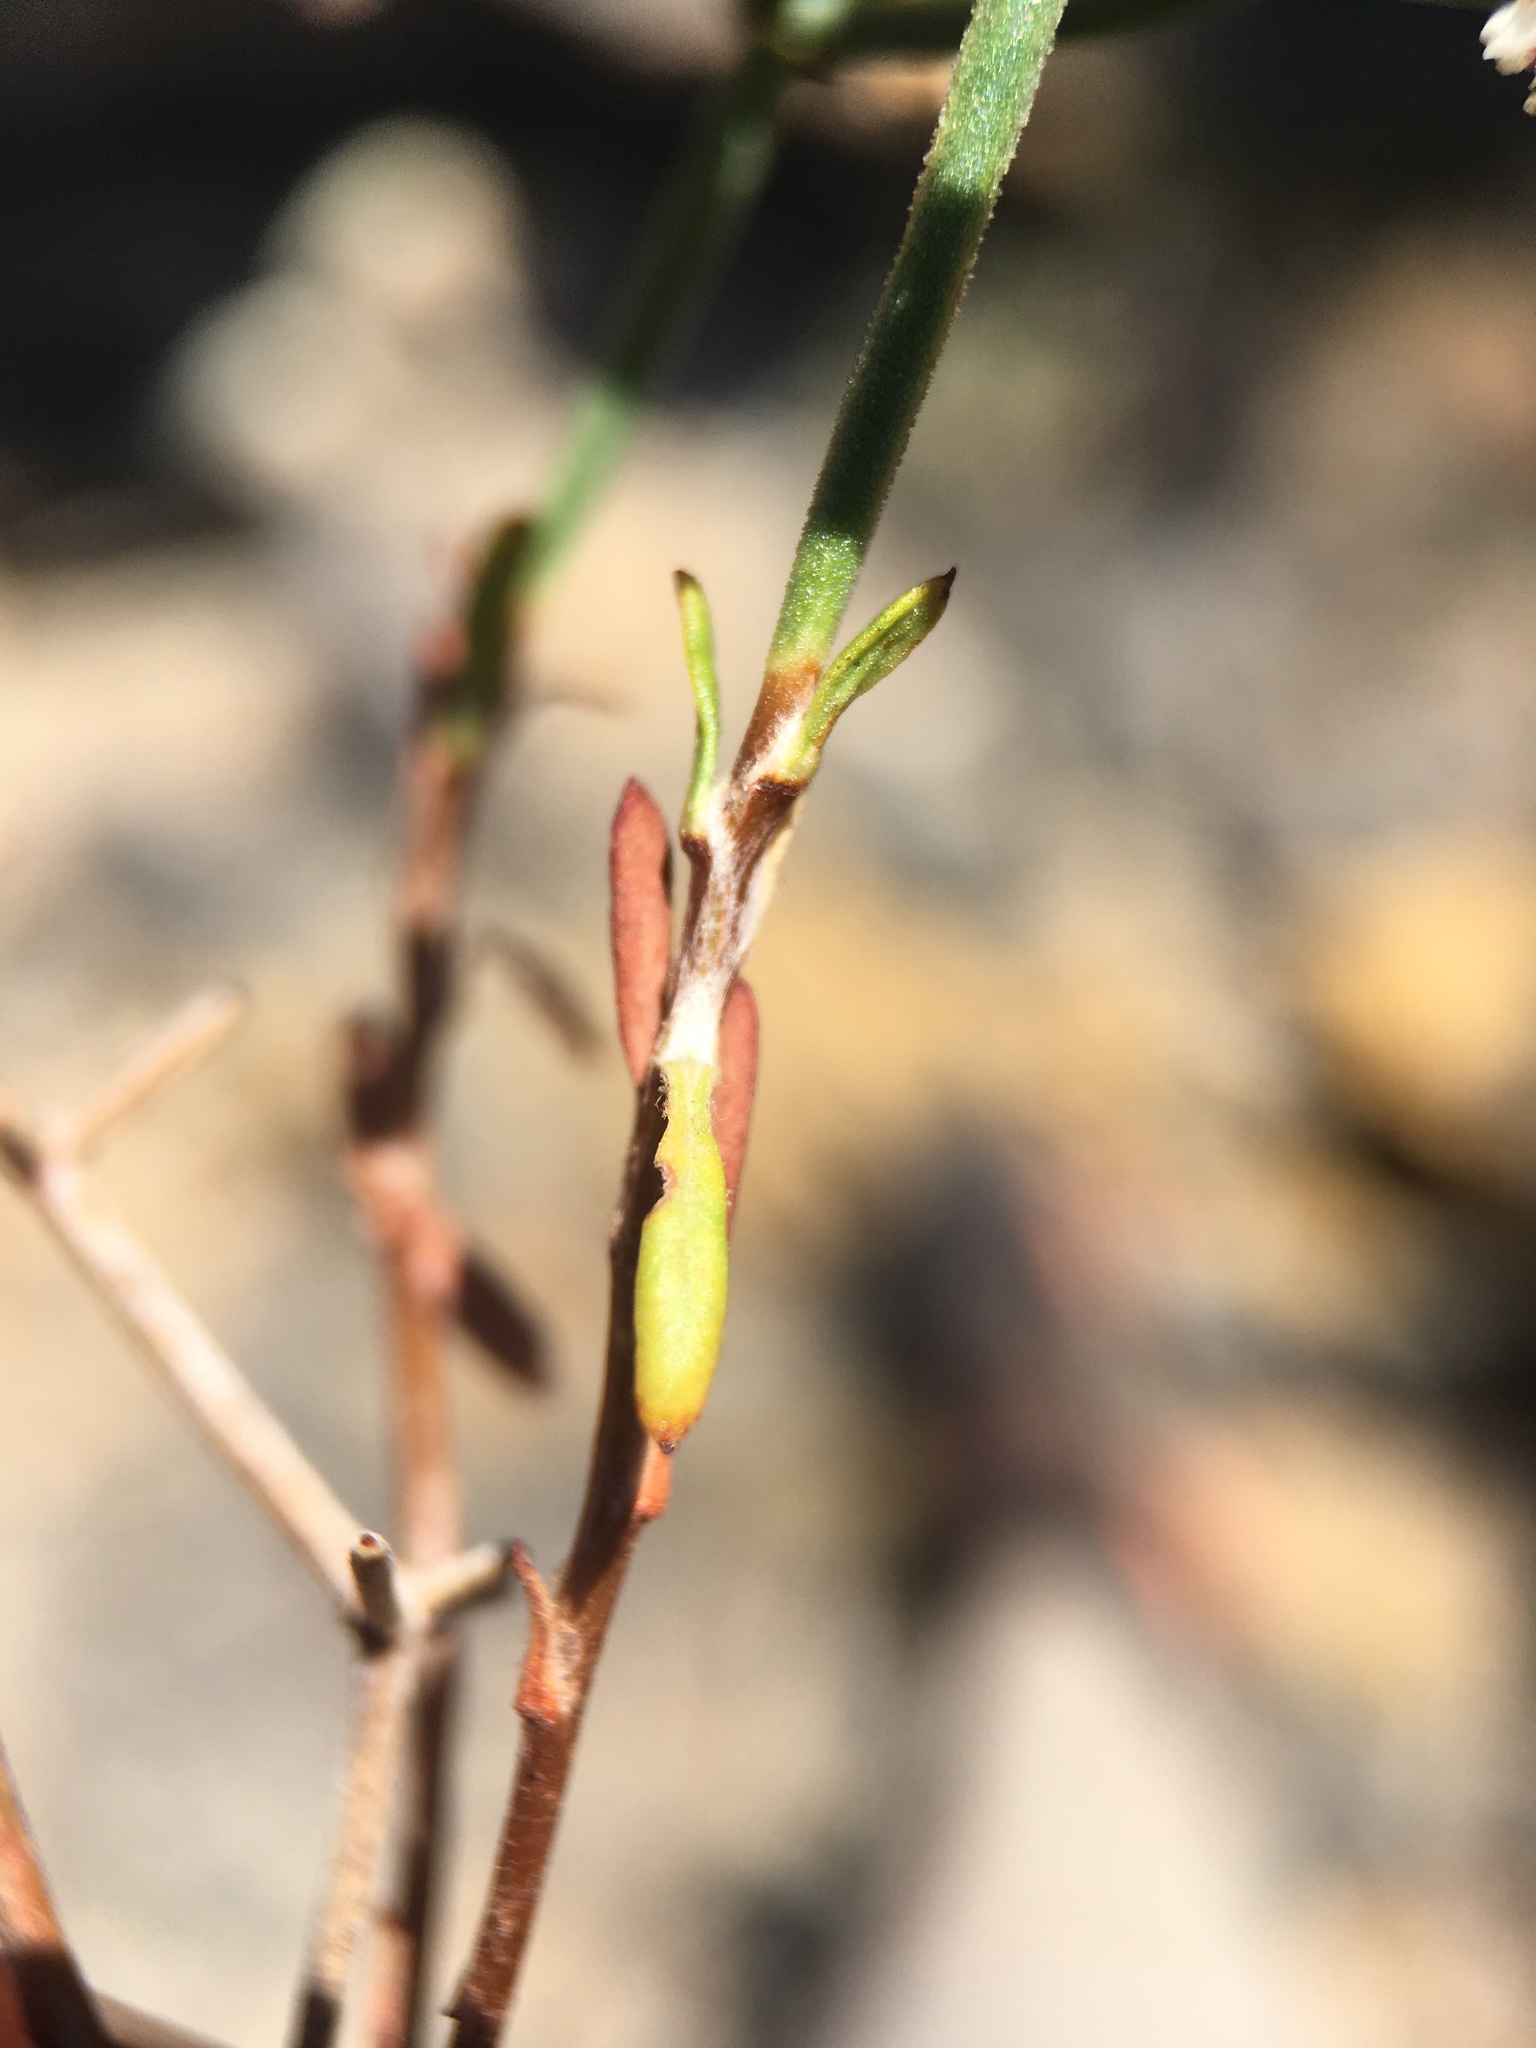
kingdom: Plantae
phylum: Tracheophyta
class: Magnoliopsida
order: Caryophyllales
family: Polygonaceae
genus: Eriogonum
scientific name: Eriogonum heermannii
